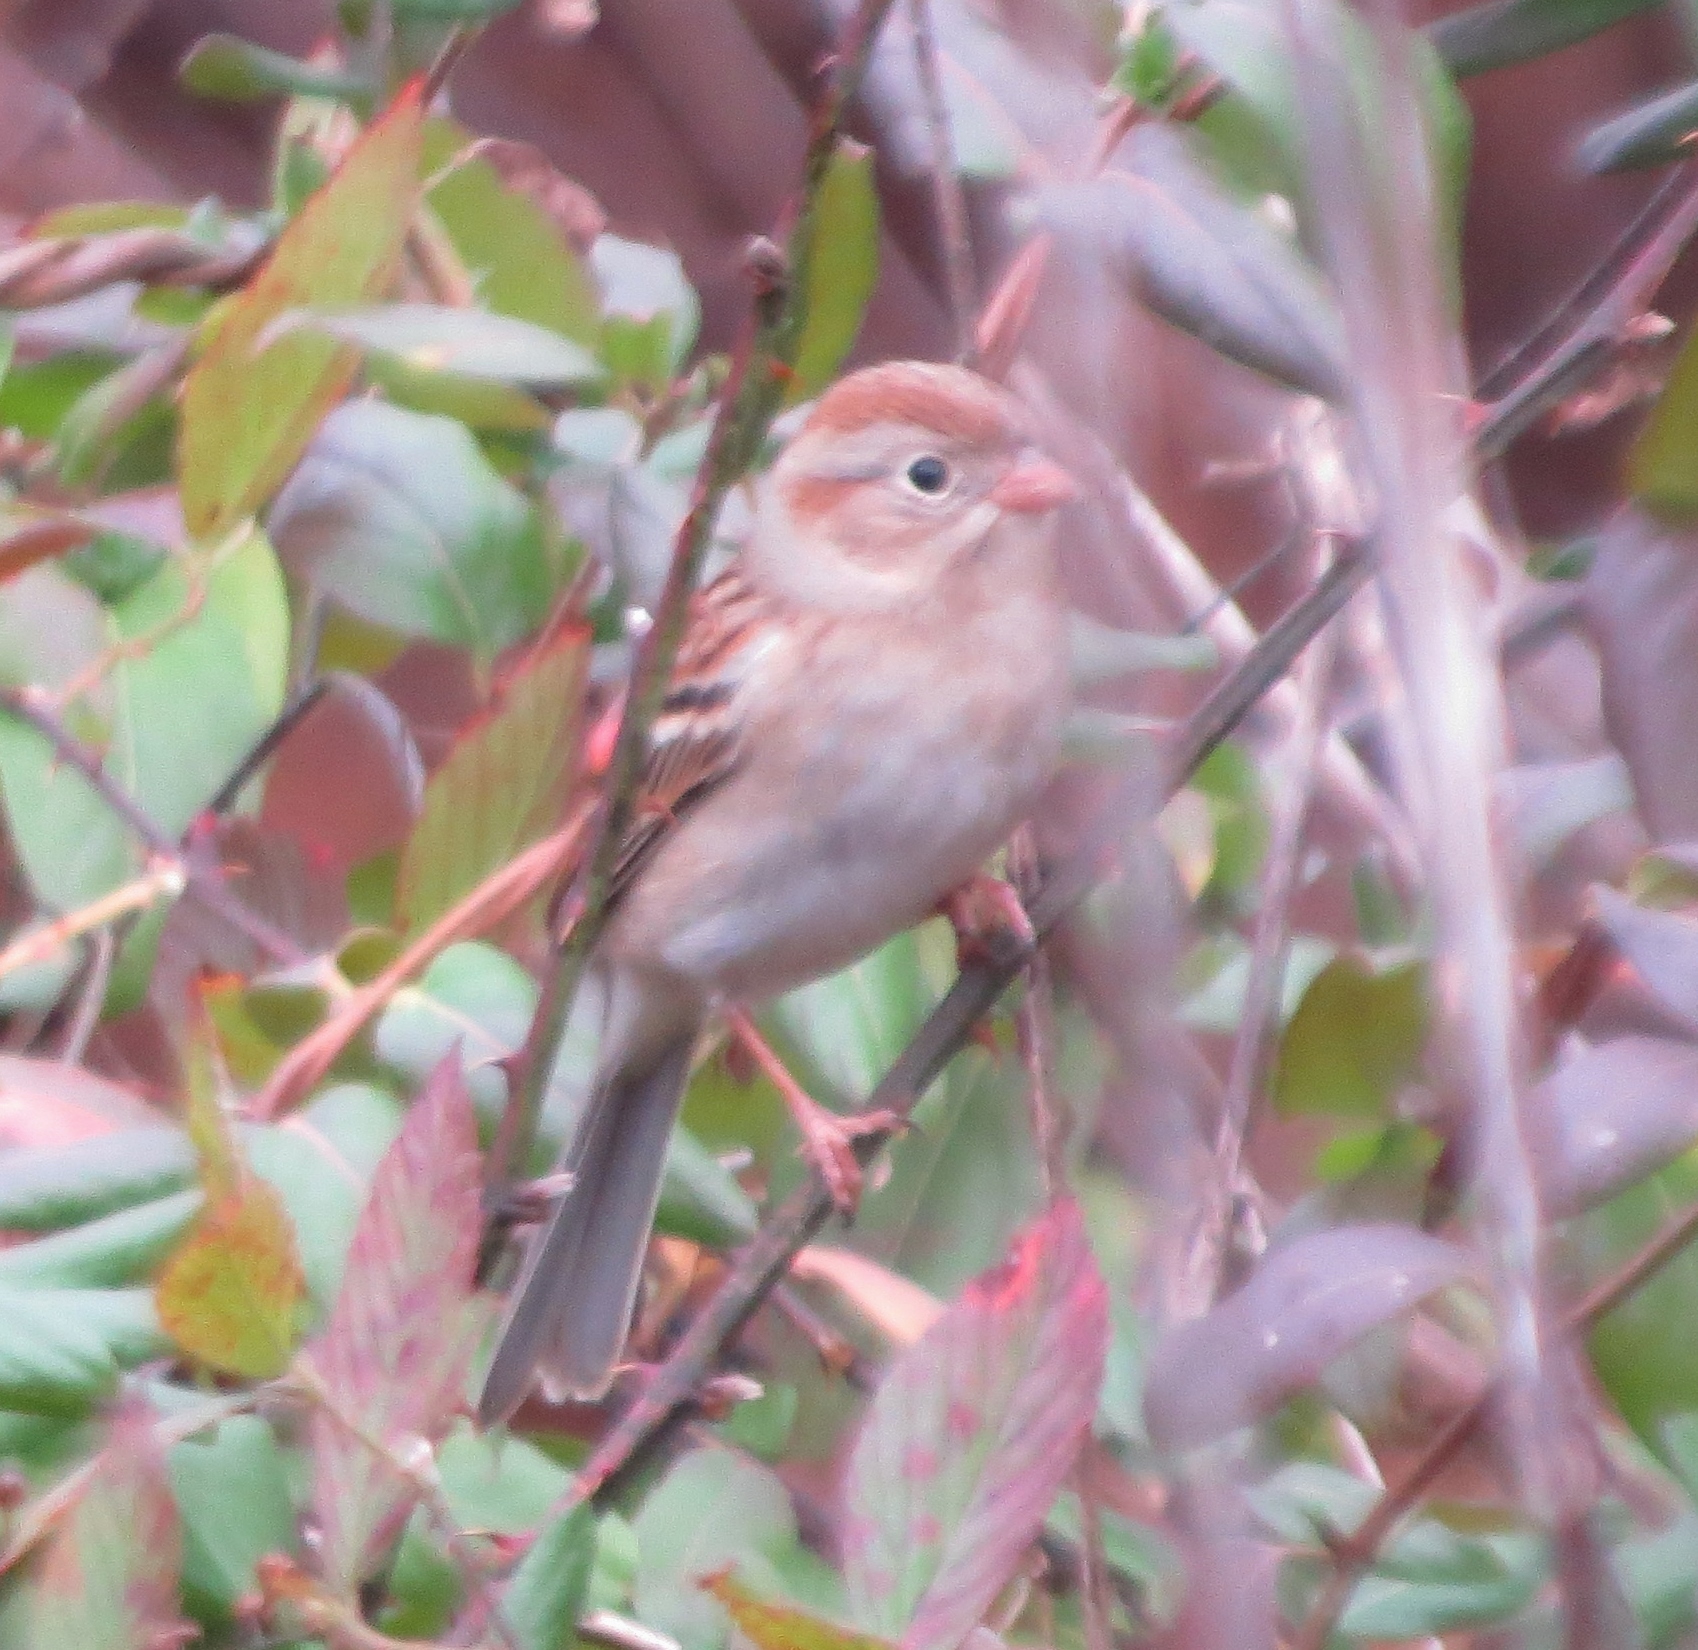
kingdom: Animalia
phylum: Chordata
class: Aves
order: Passeriformes
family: Passerellidae
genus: Spizella
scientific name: Spizella pusilla
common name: Field sparrow
